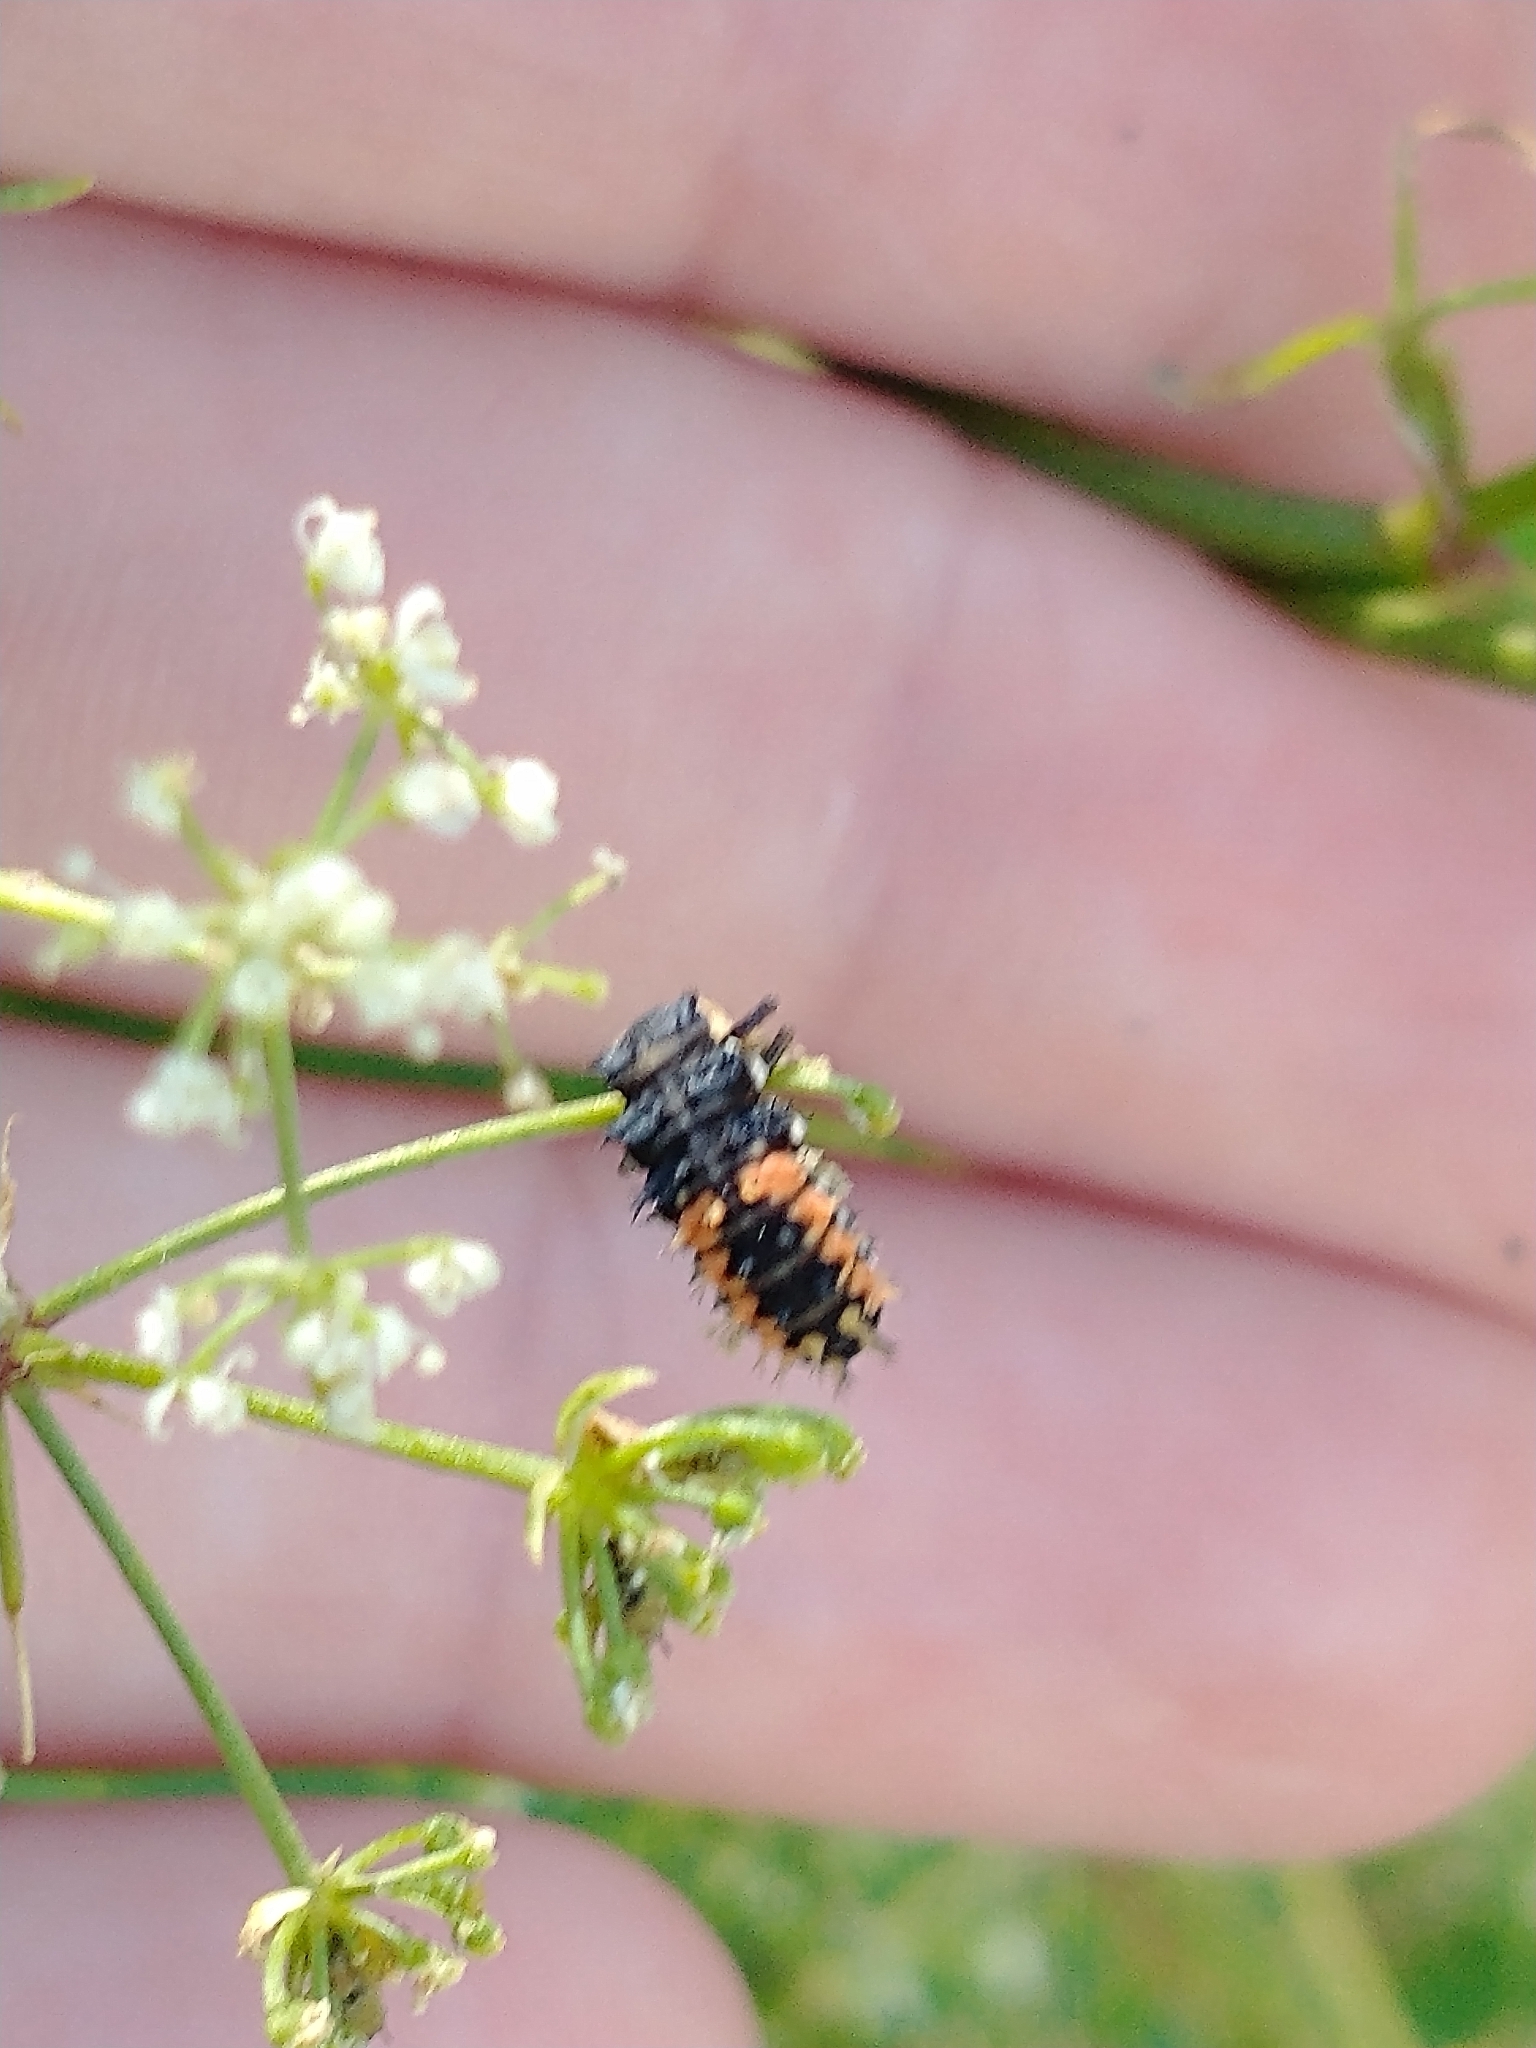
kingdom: Animalia
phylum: Arthropoda
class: Insecta
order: Coleoptera
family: Coccinellidae
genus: Harmonia
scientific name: Harmonia axyridis
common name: Harlequin ladybird
